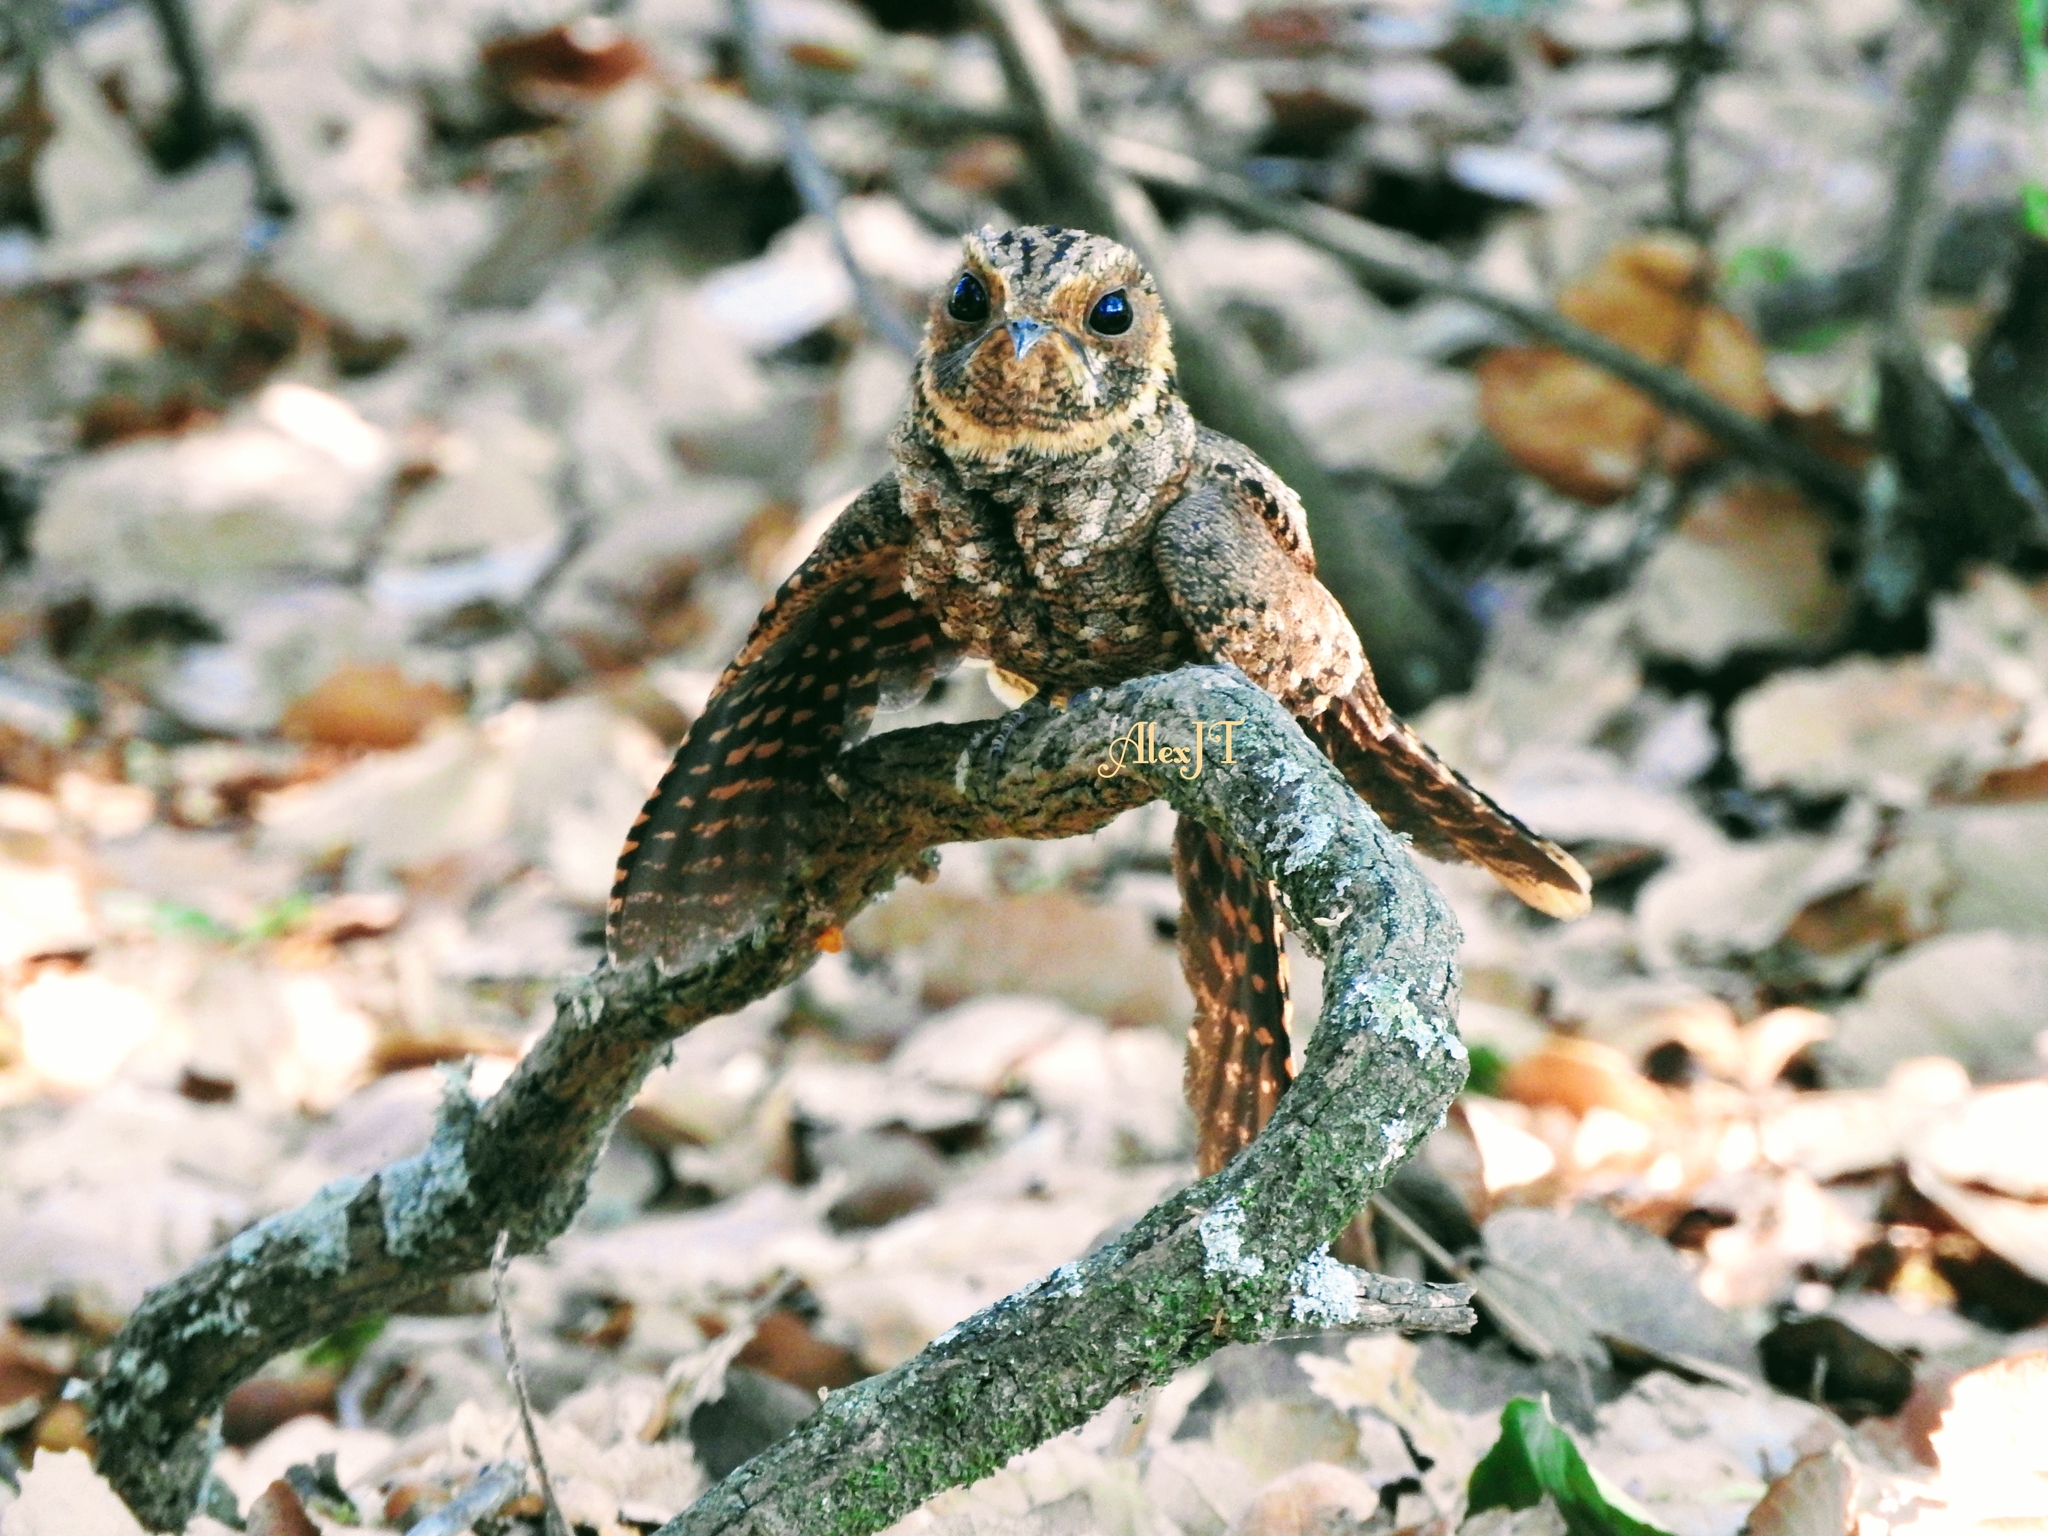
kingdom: Animalia
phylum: Chordata
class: Aves
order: Caprimulgiformes
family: Caprimulgidae
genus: Antrostomus
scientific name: Antrostomus ridgwayi
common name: Buff-collared nightjar
